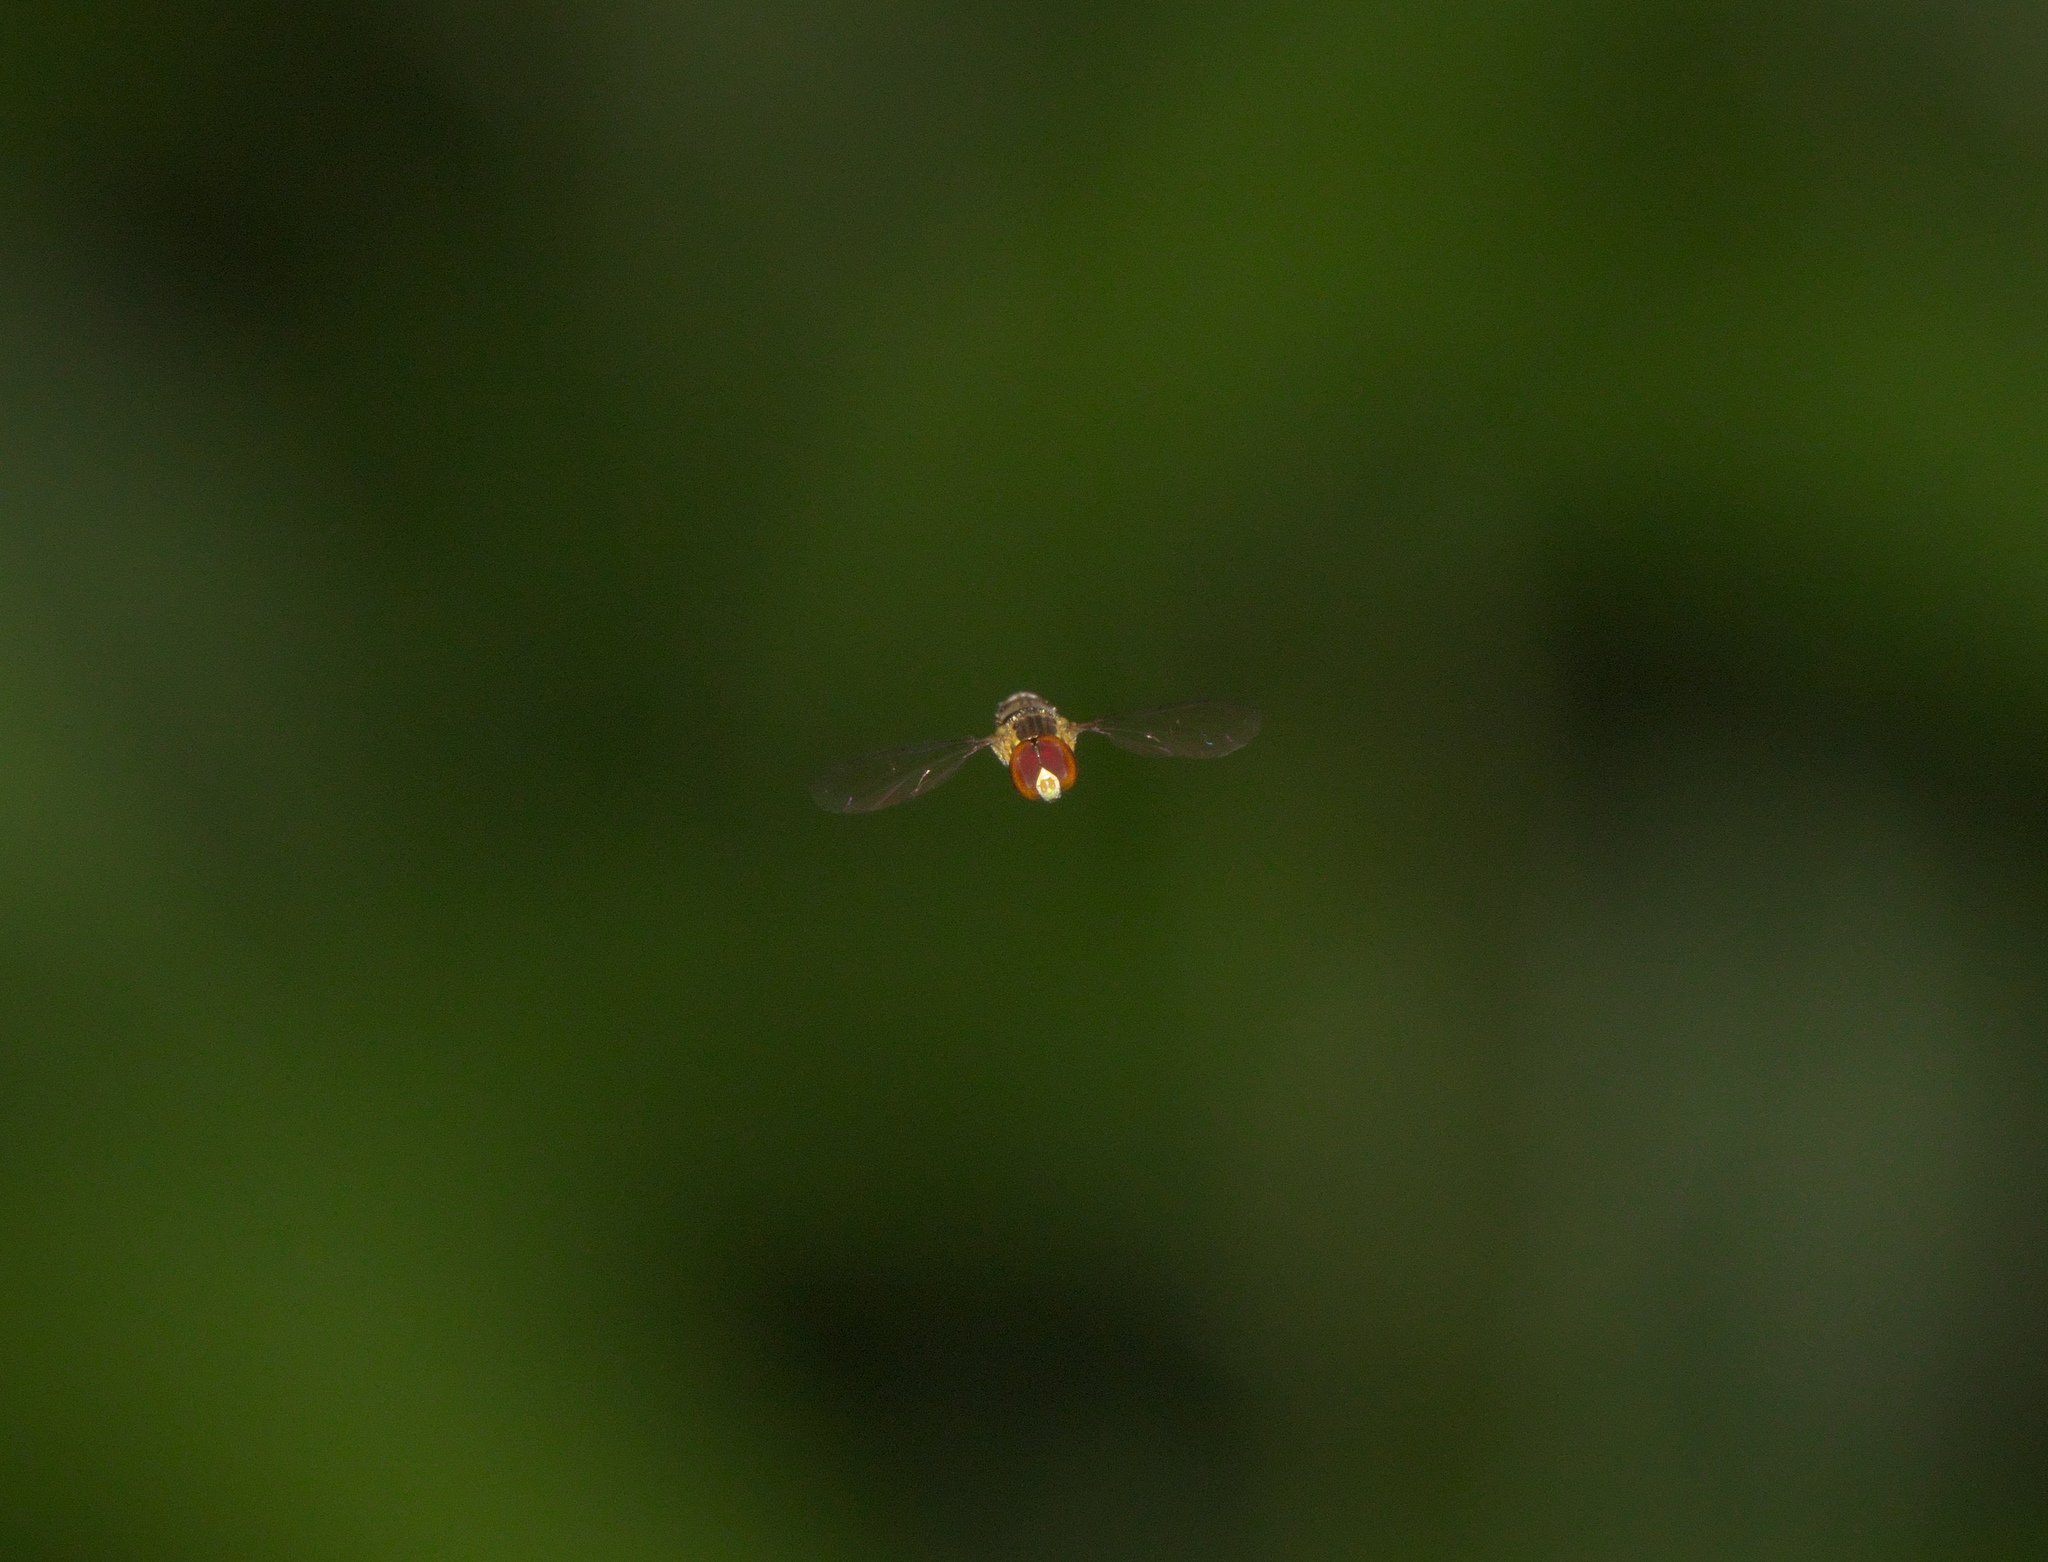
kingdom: Animalia
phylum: Arthropoda
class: Insecta
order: Diptera
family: Syrphidae
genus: Toxomerus
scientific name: Toxomerus
